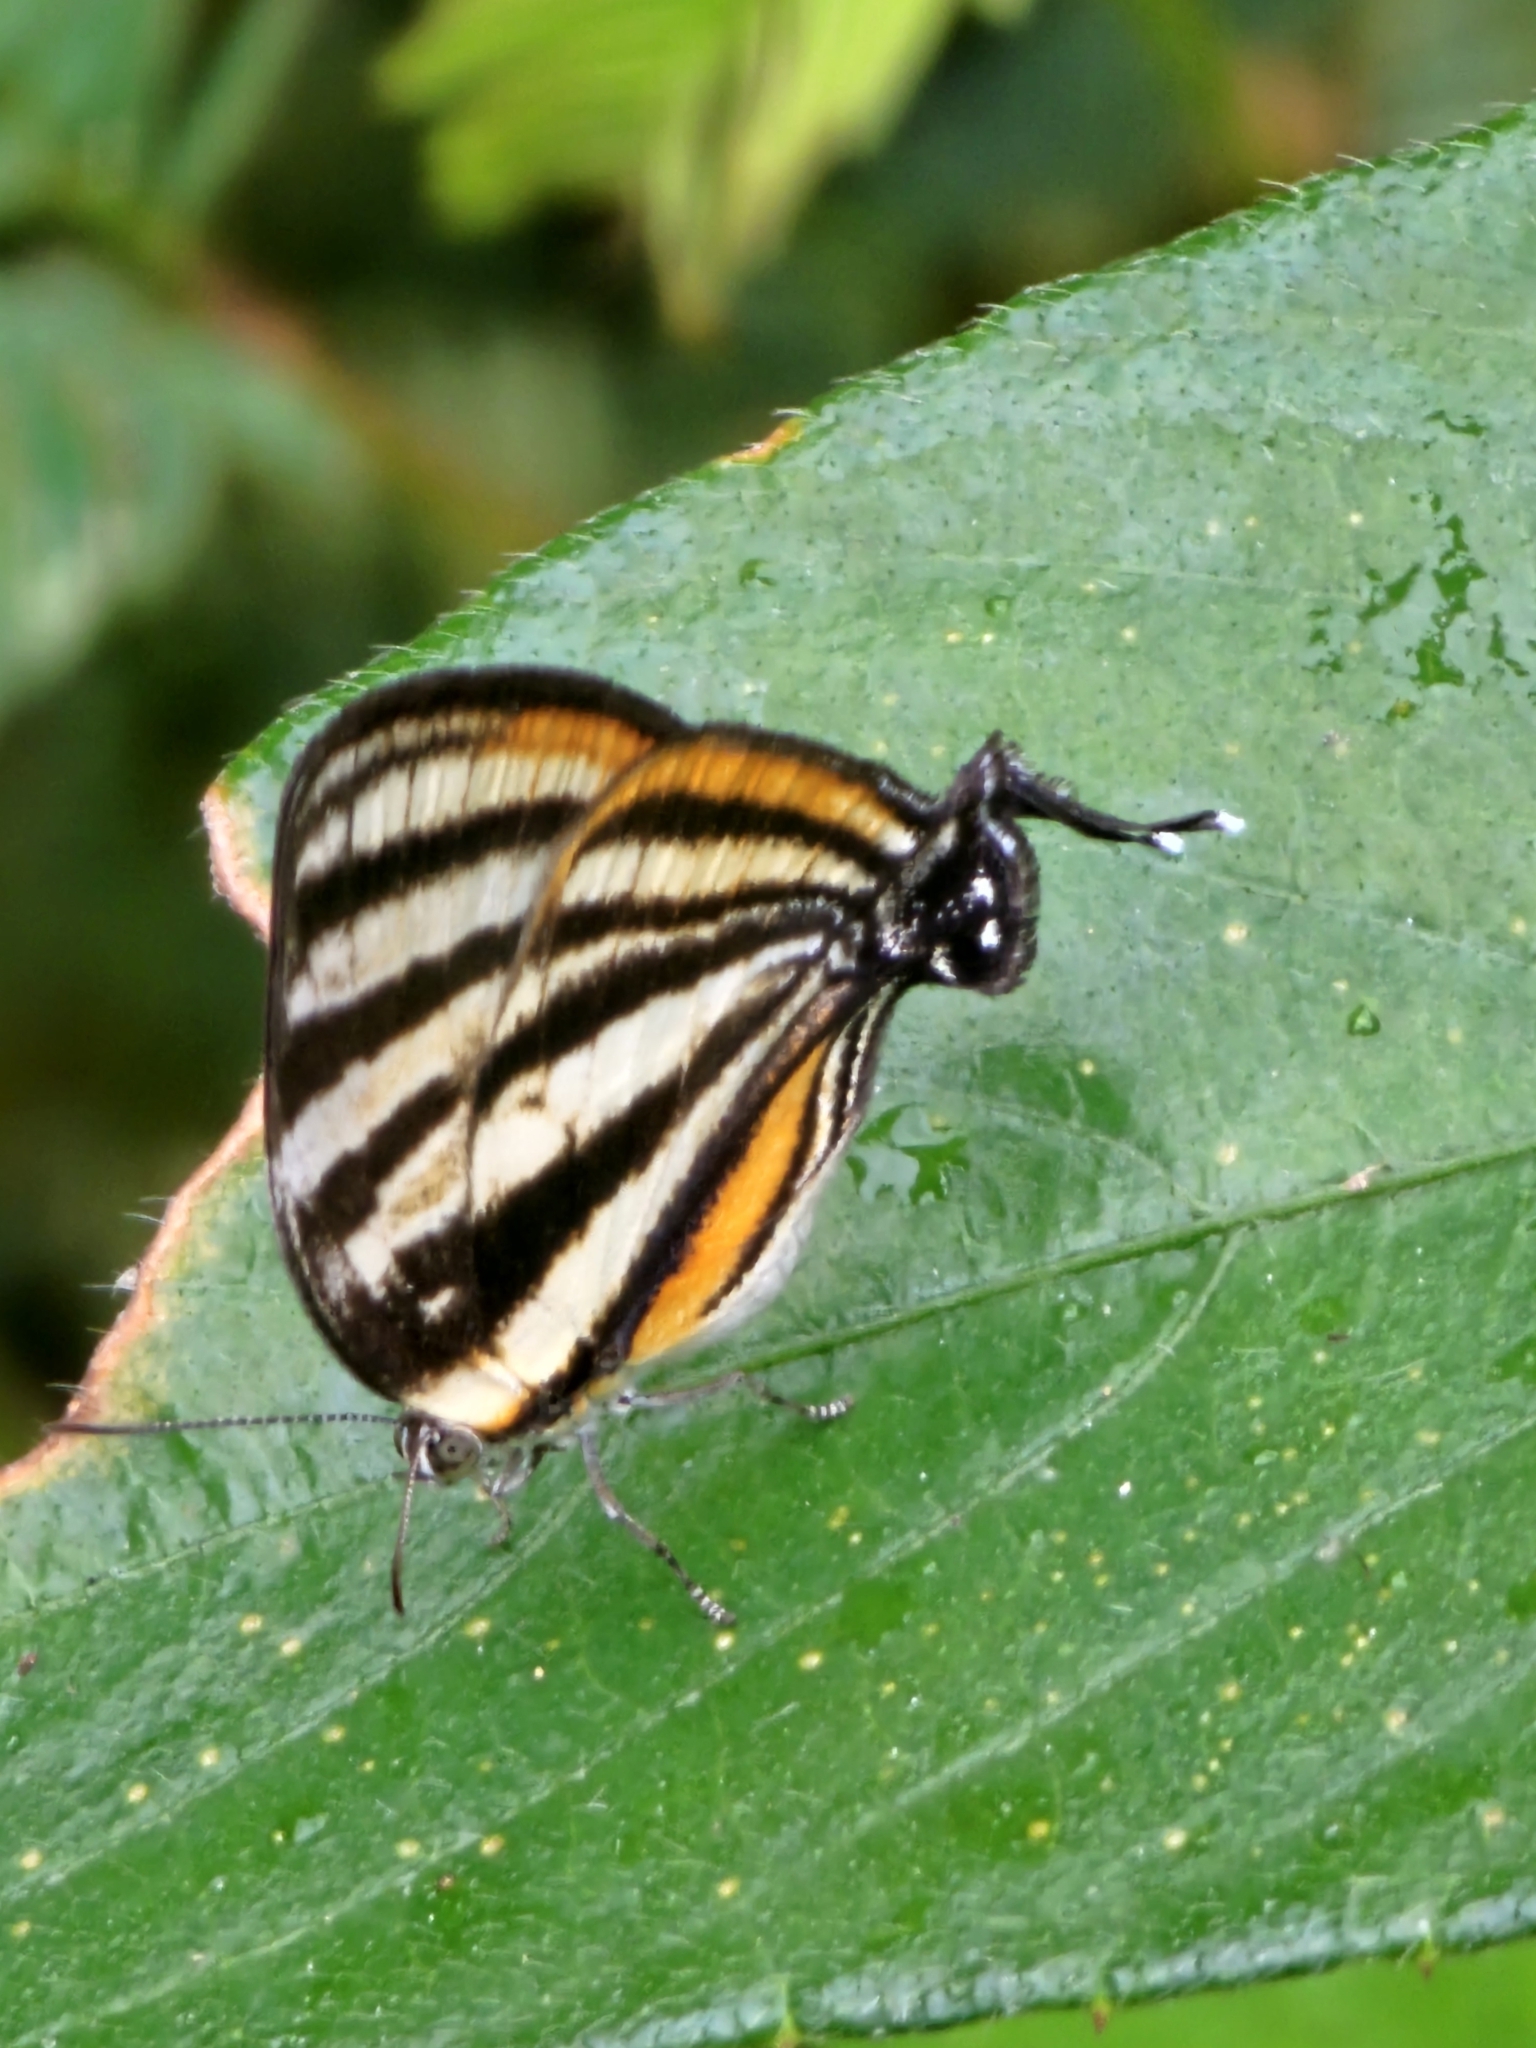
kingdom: Animalia
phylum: Arthropoda
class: Insecta
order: Lepidoptera
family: Lycaenidae
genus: Thecla
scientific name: Thecla aetolus
